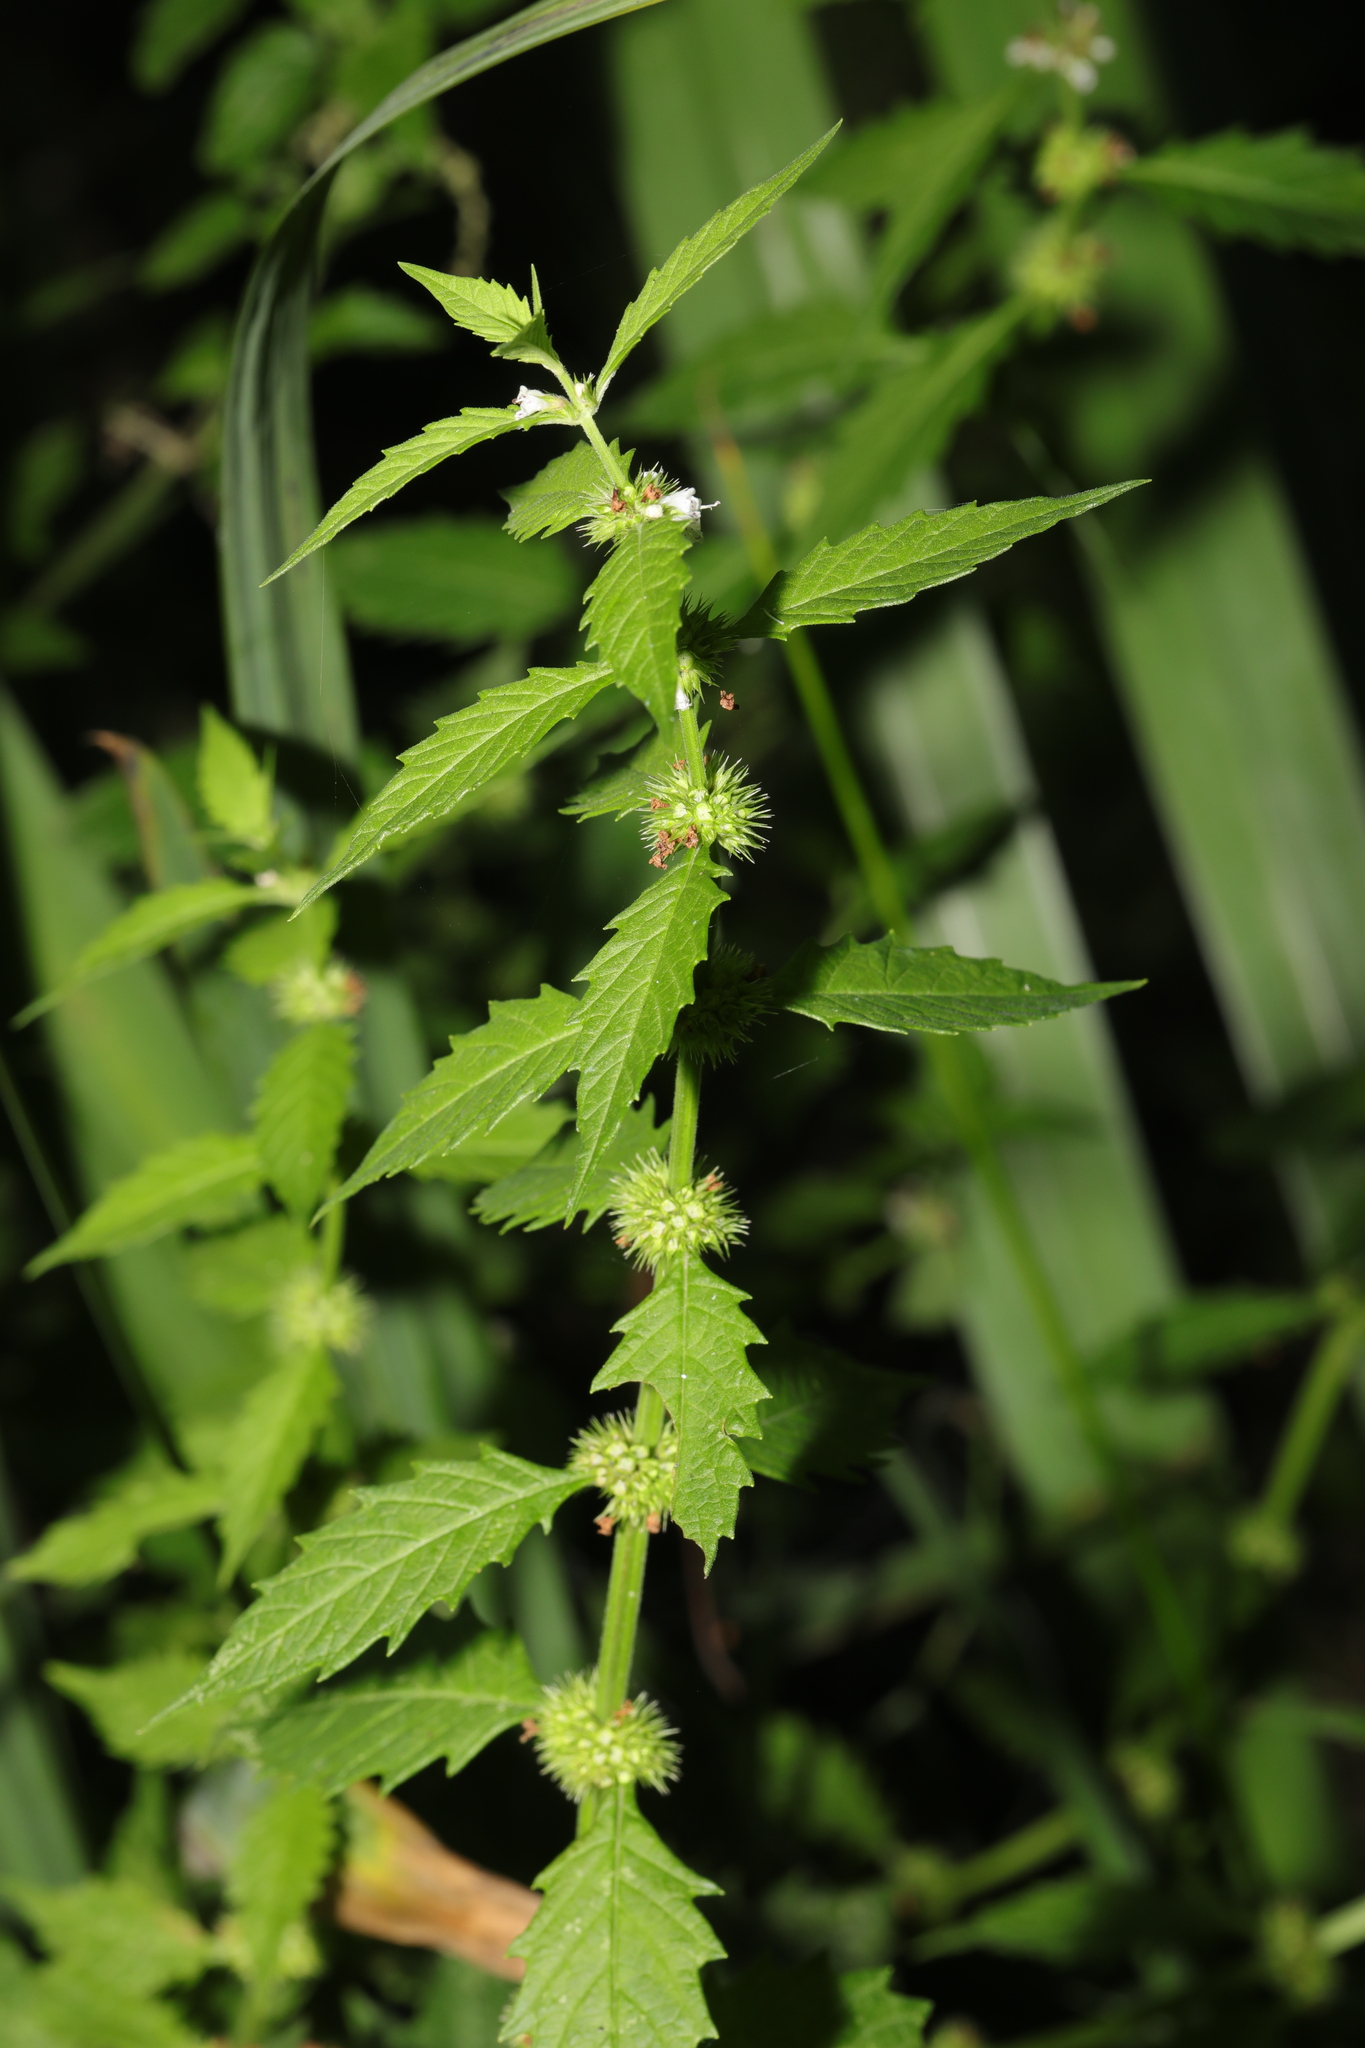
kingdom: Plantae
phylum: Tracheophyta
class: Magnoliopsida
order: Lamiales
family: Lamiaceae
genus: Lycopus
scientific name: Lycopus europaeus
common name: European bugleweed
